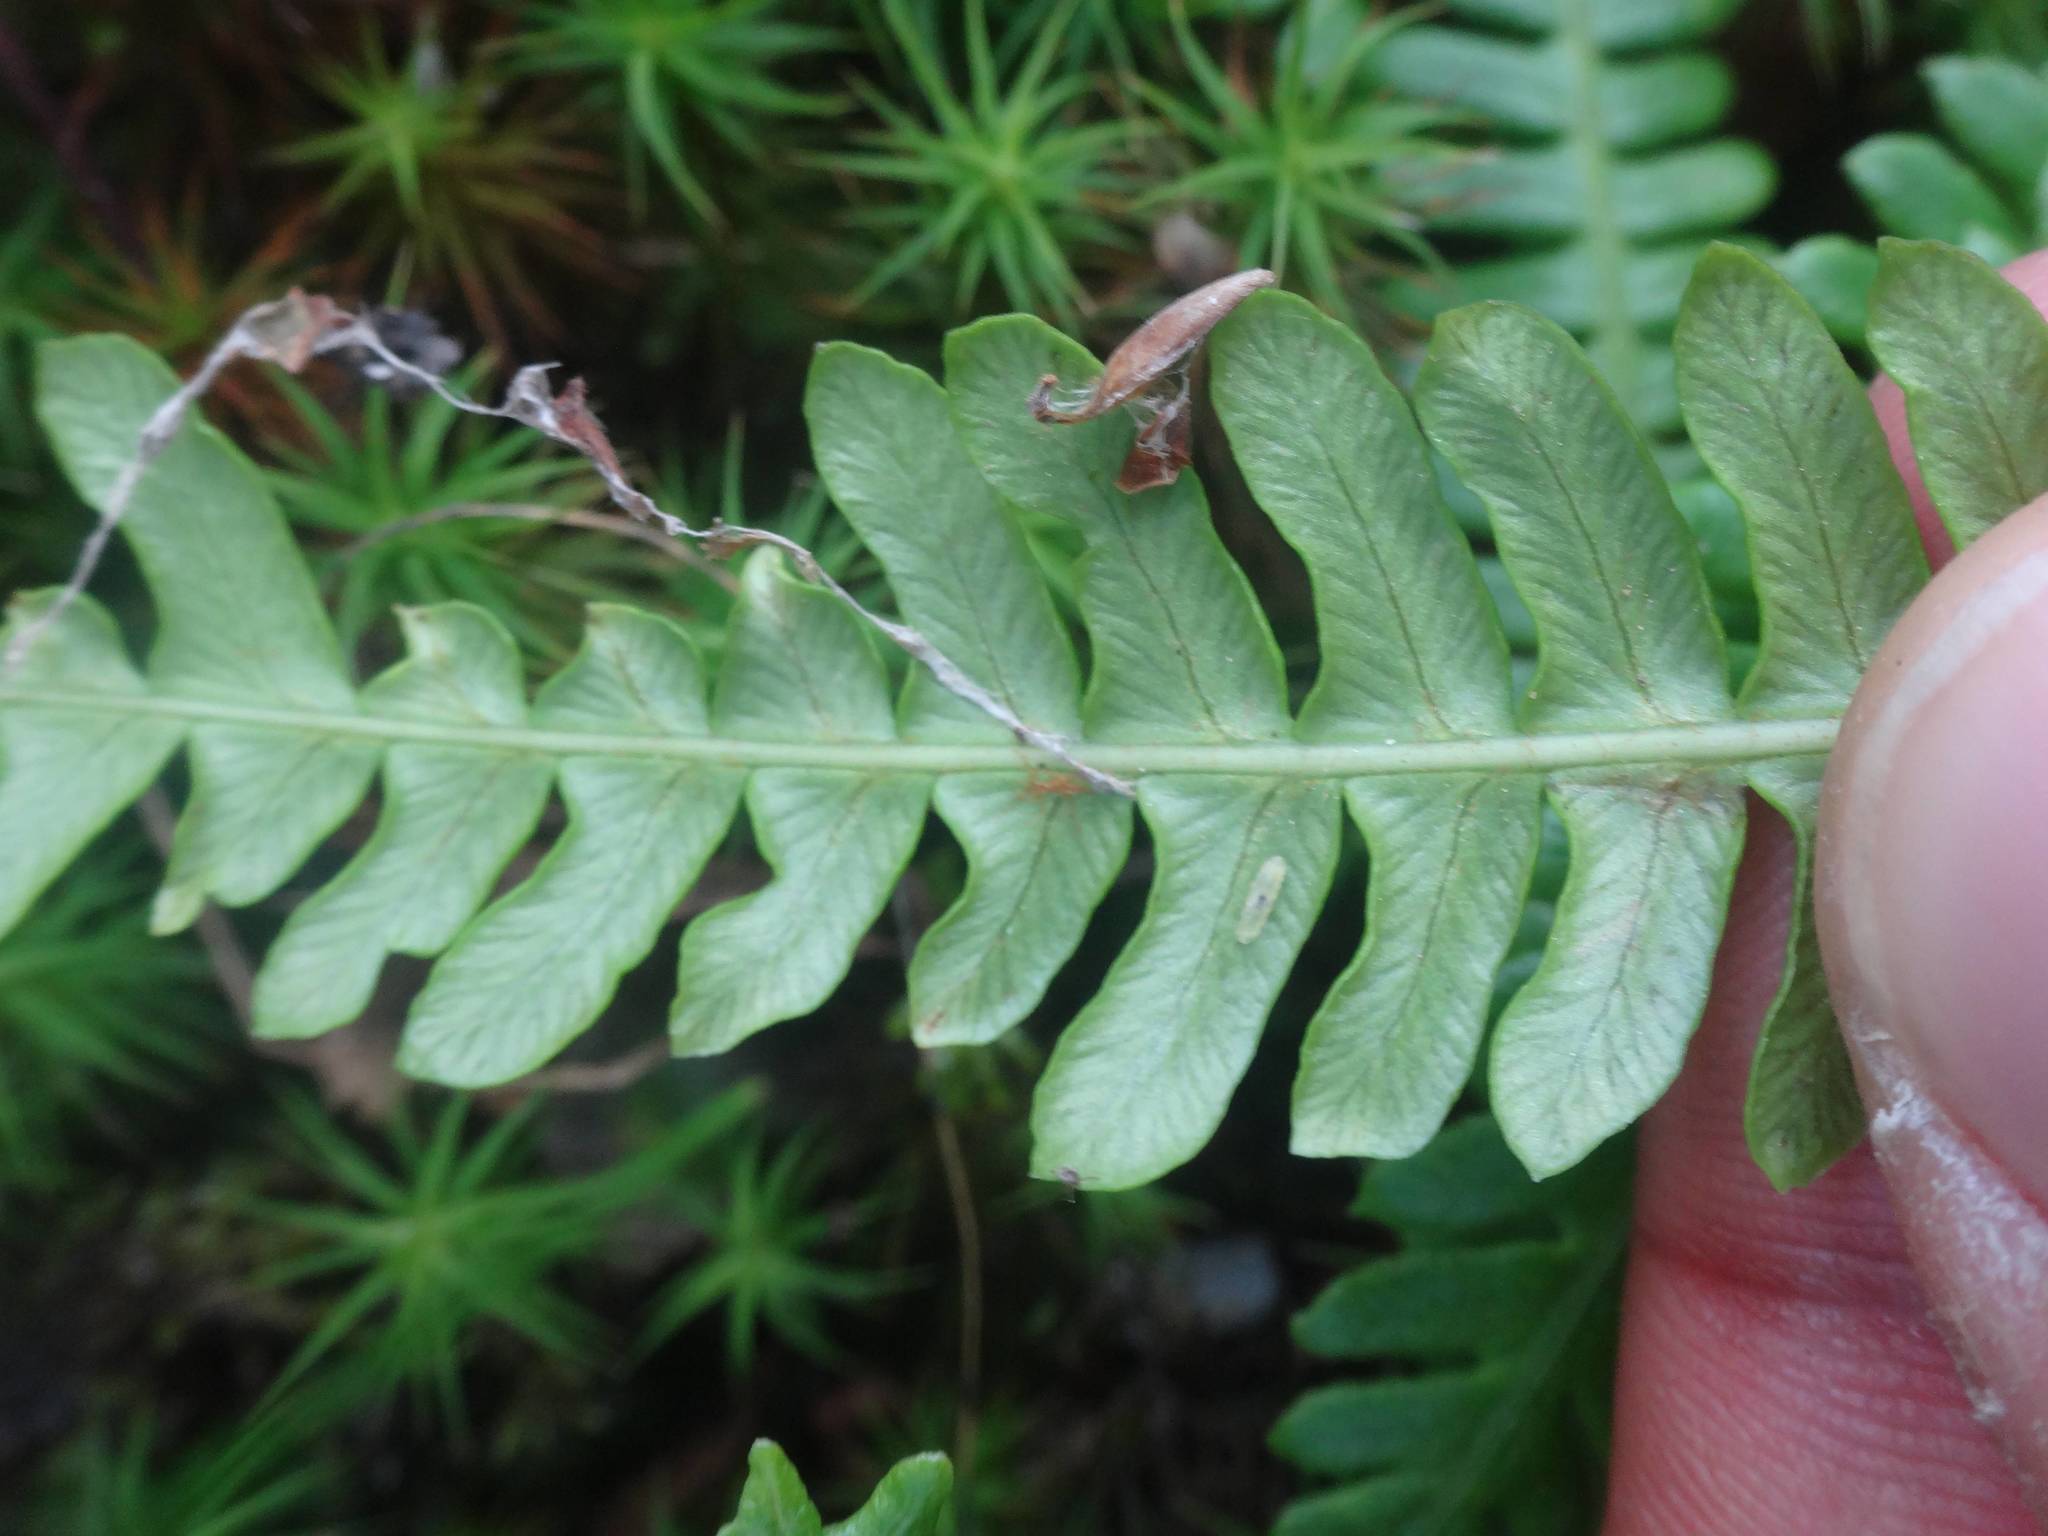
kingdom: Plantae
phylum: Tracheophyta
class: Polypodiopsida
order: Polypodiales
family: Blechnaceae
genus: Struthiopteris
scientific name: Struthiopteris spicant
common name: Deer fern
